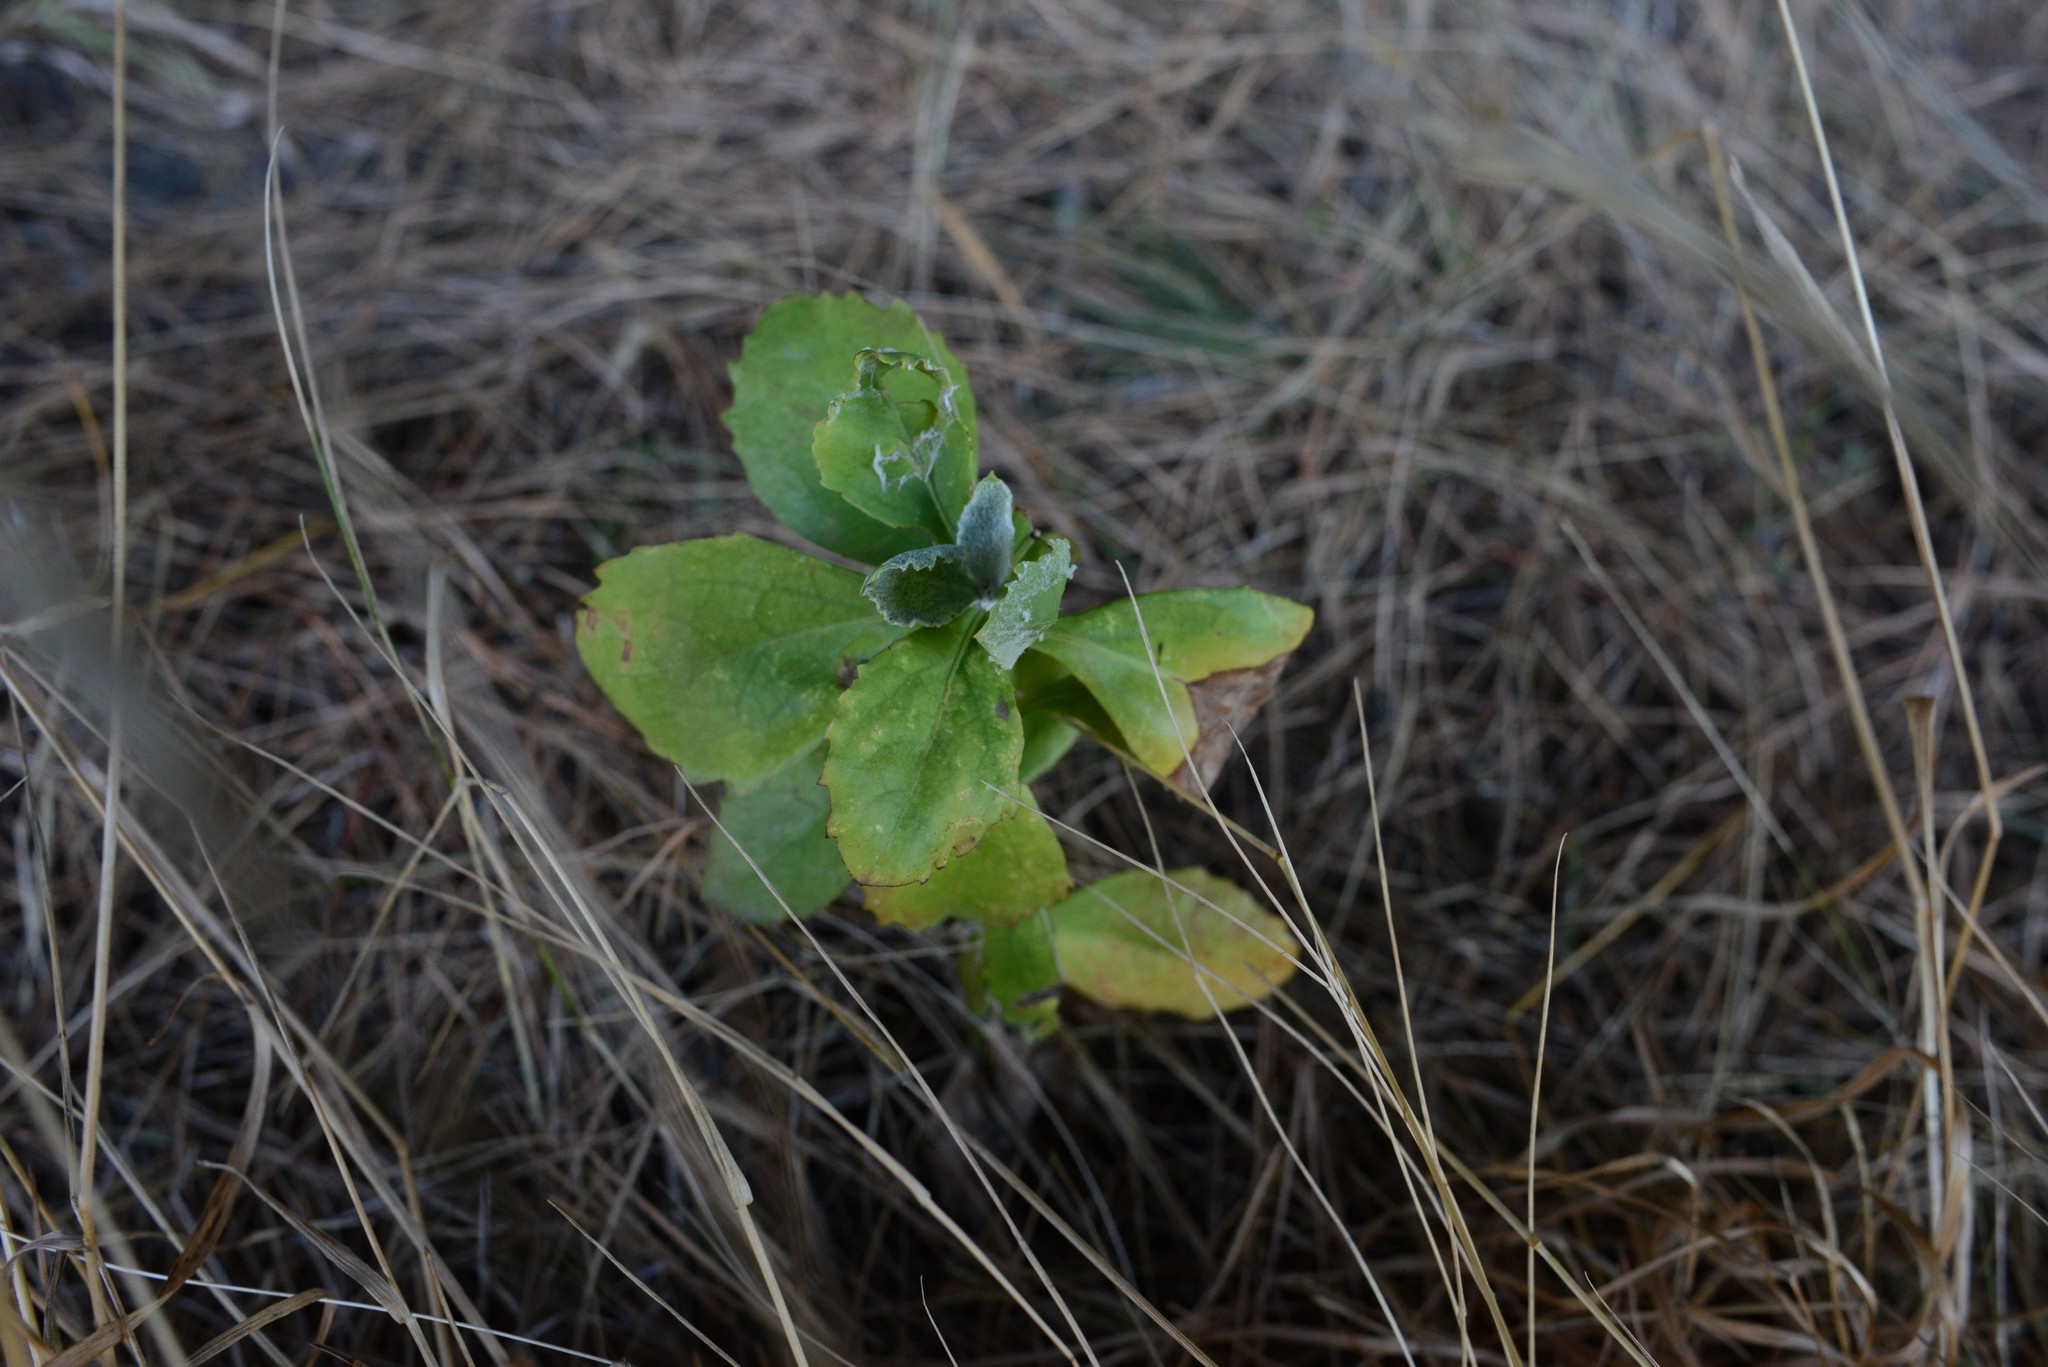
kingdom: Plantae
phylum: Tracheophyta
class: Magnoliopsida
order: Asterales
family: Asteraceae
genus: Osteospermum
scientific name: Osteospermum moniliferum
